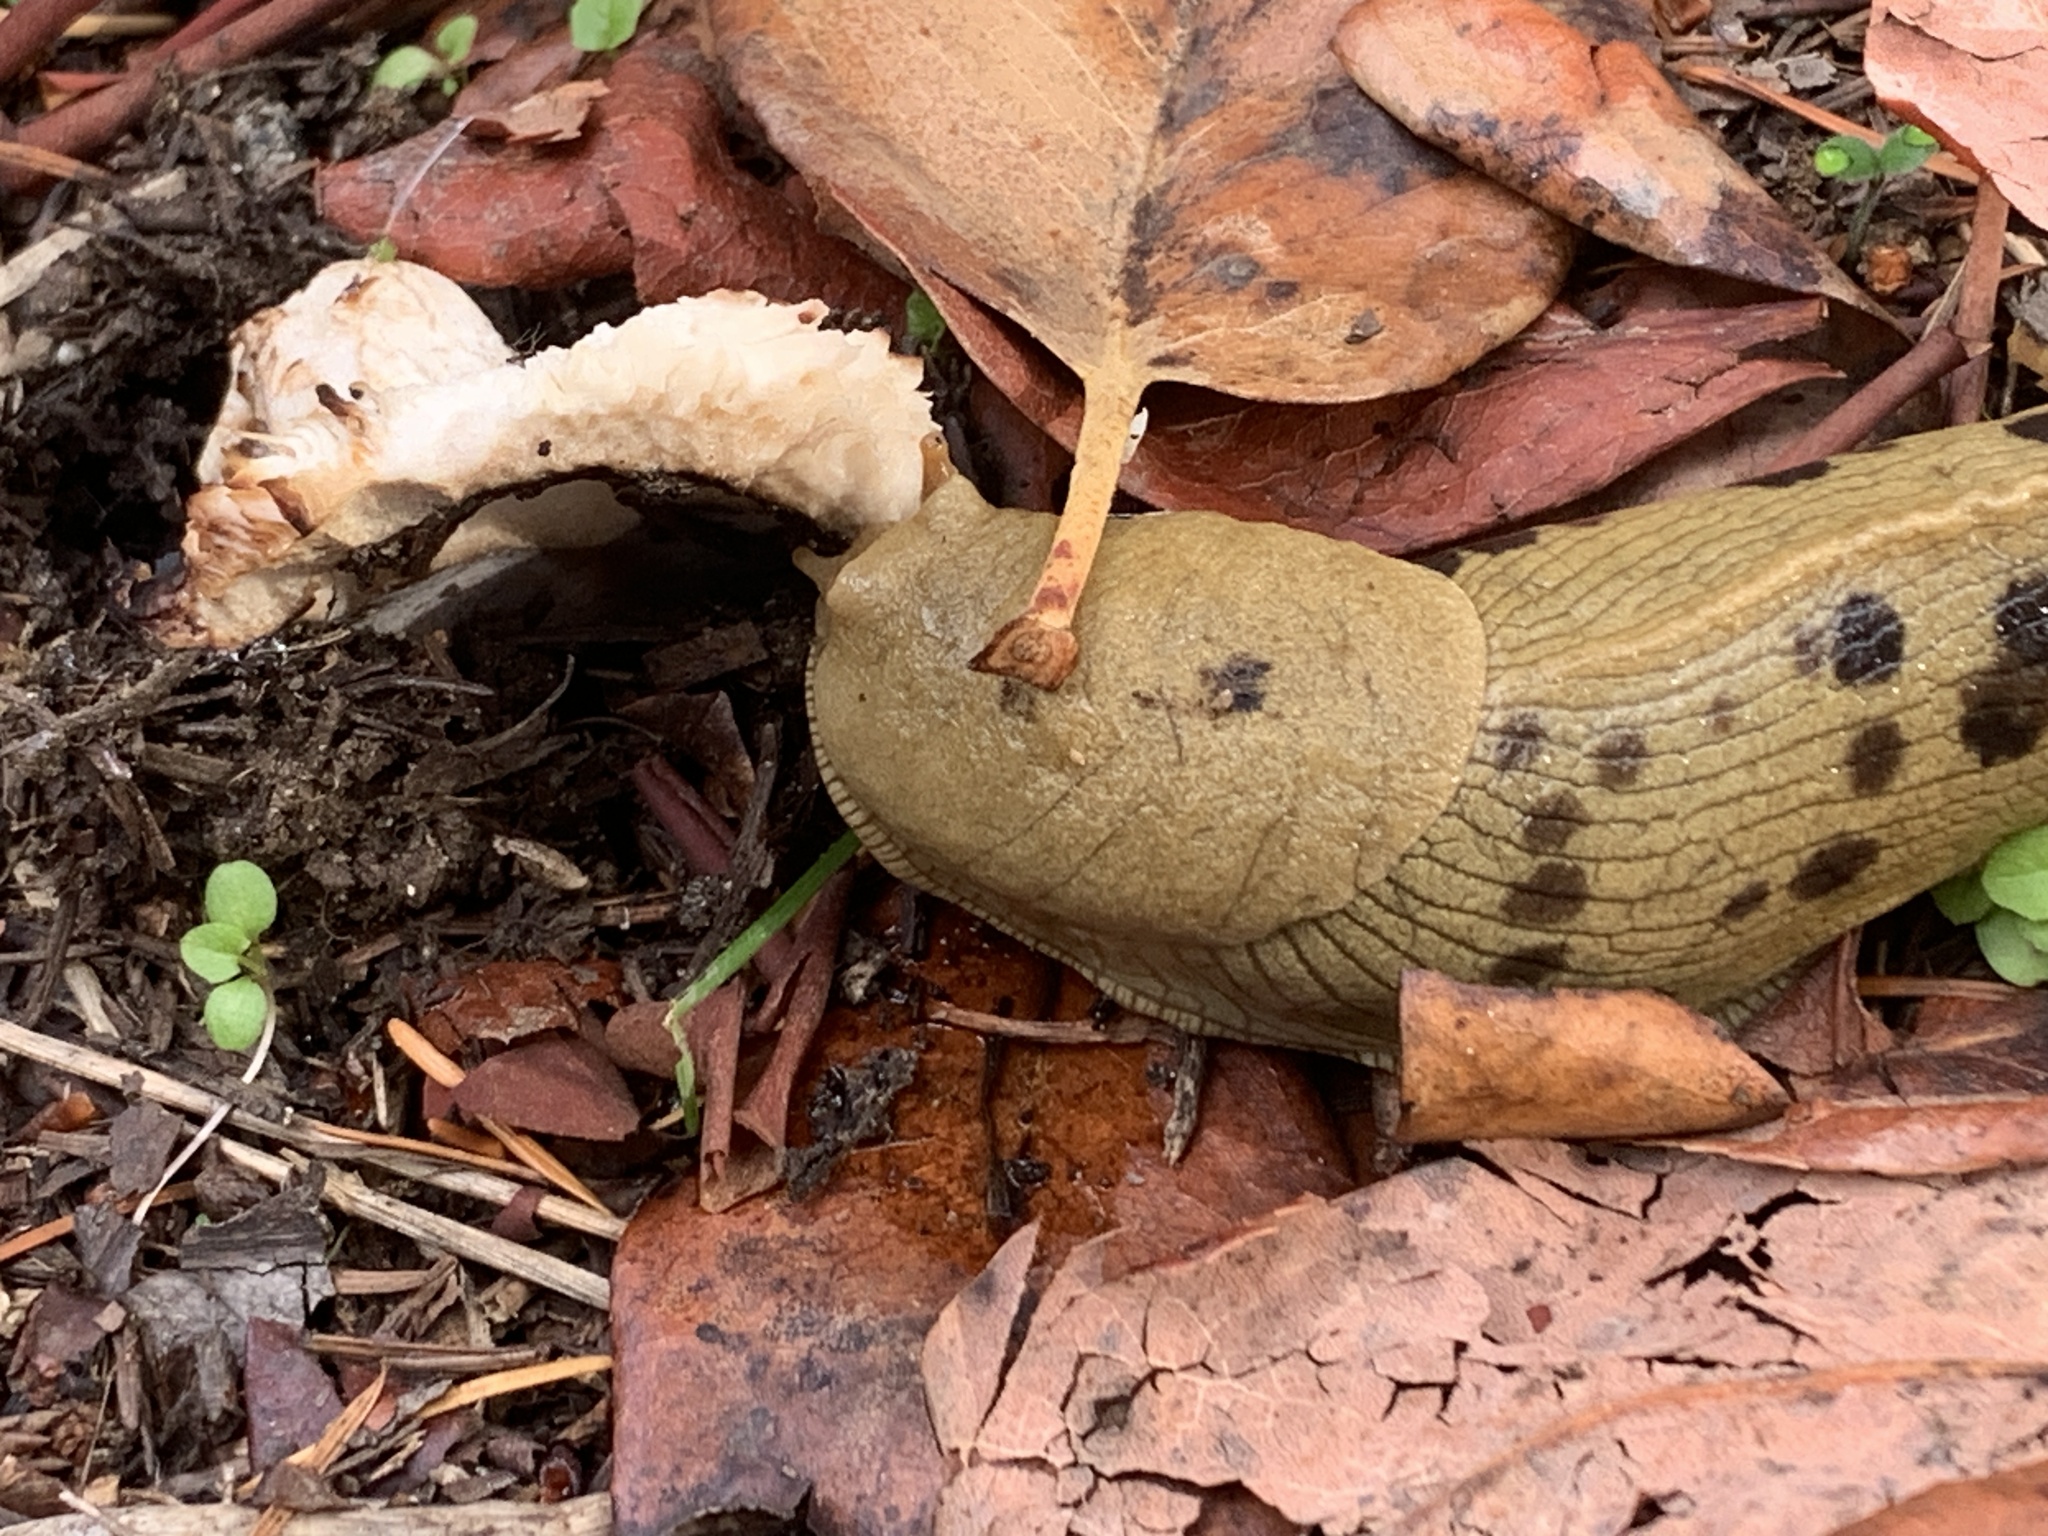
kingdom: Animalia
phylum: Mollusca
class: Gastropoda
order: Stylommatophora
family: Ariolimacidae
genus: Ariolimax
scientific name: Ariolimax columbianus
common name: Pacific banana slug
